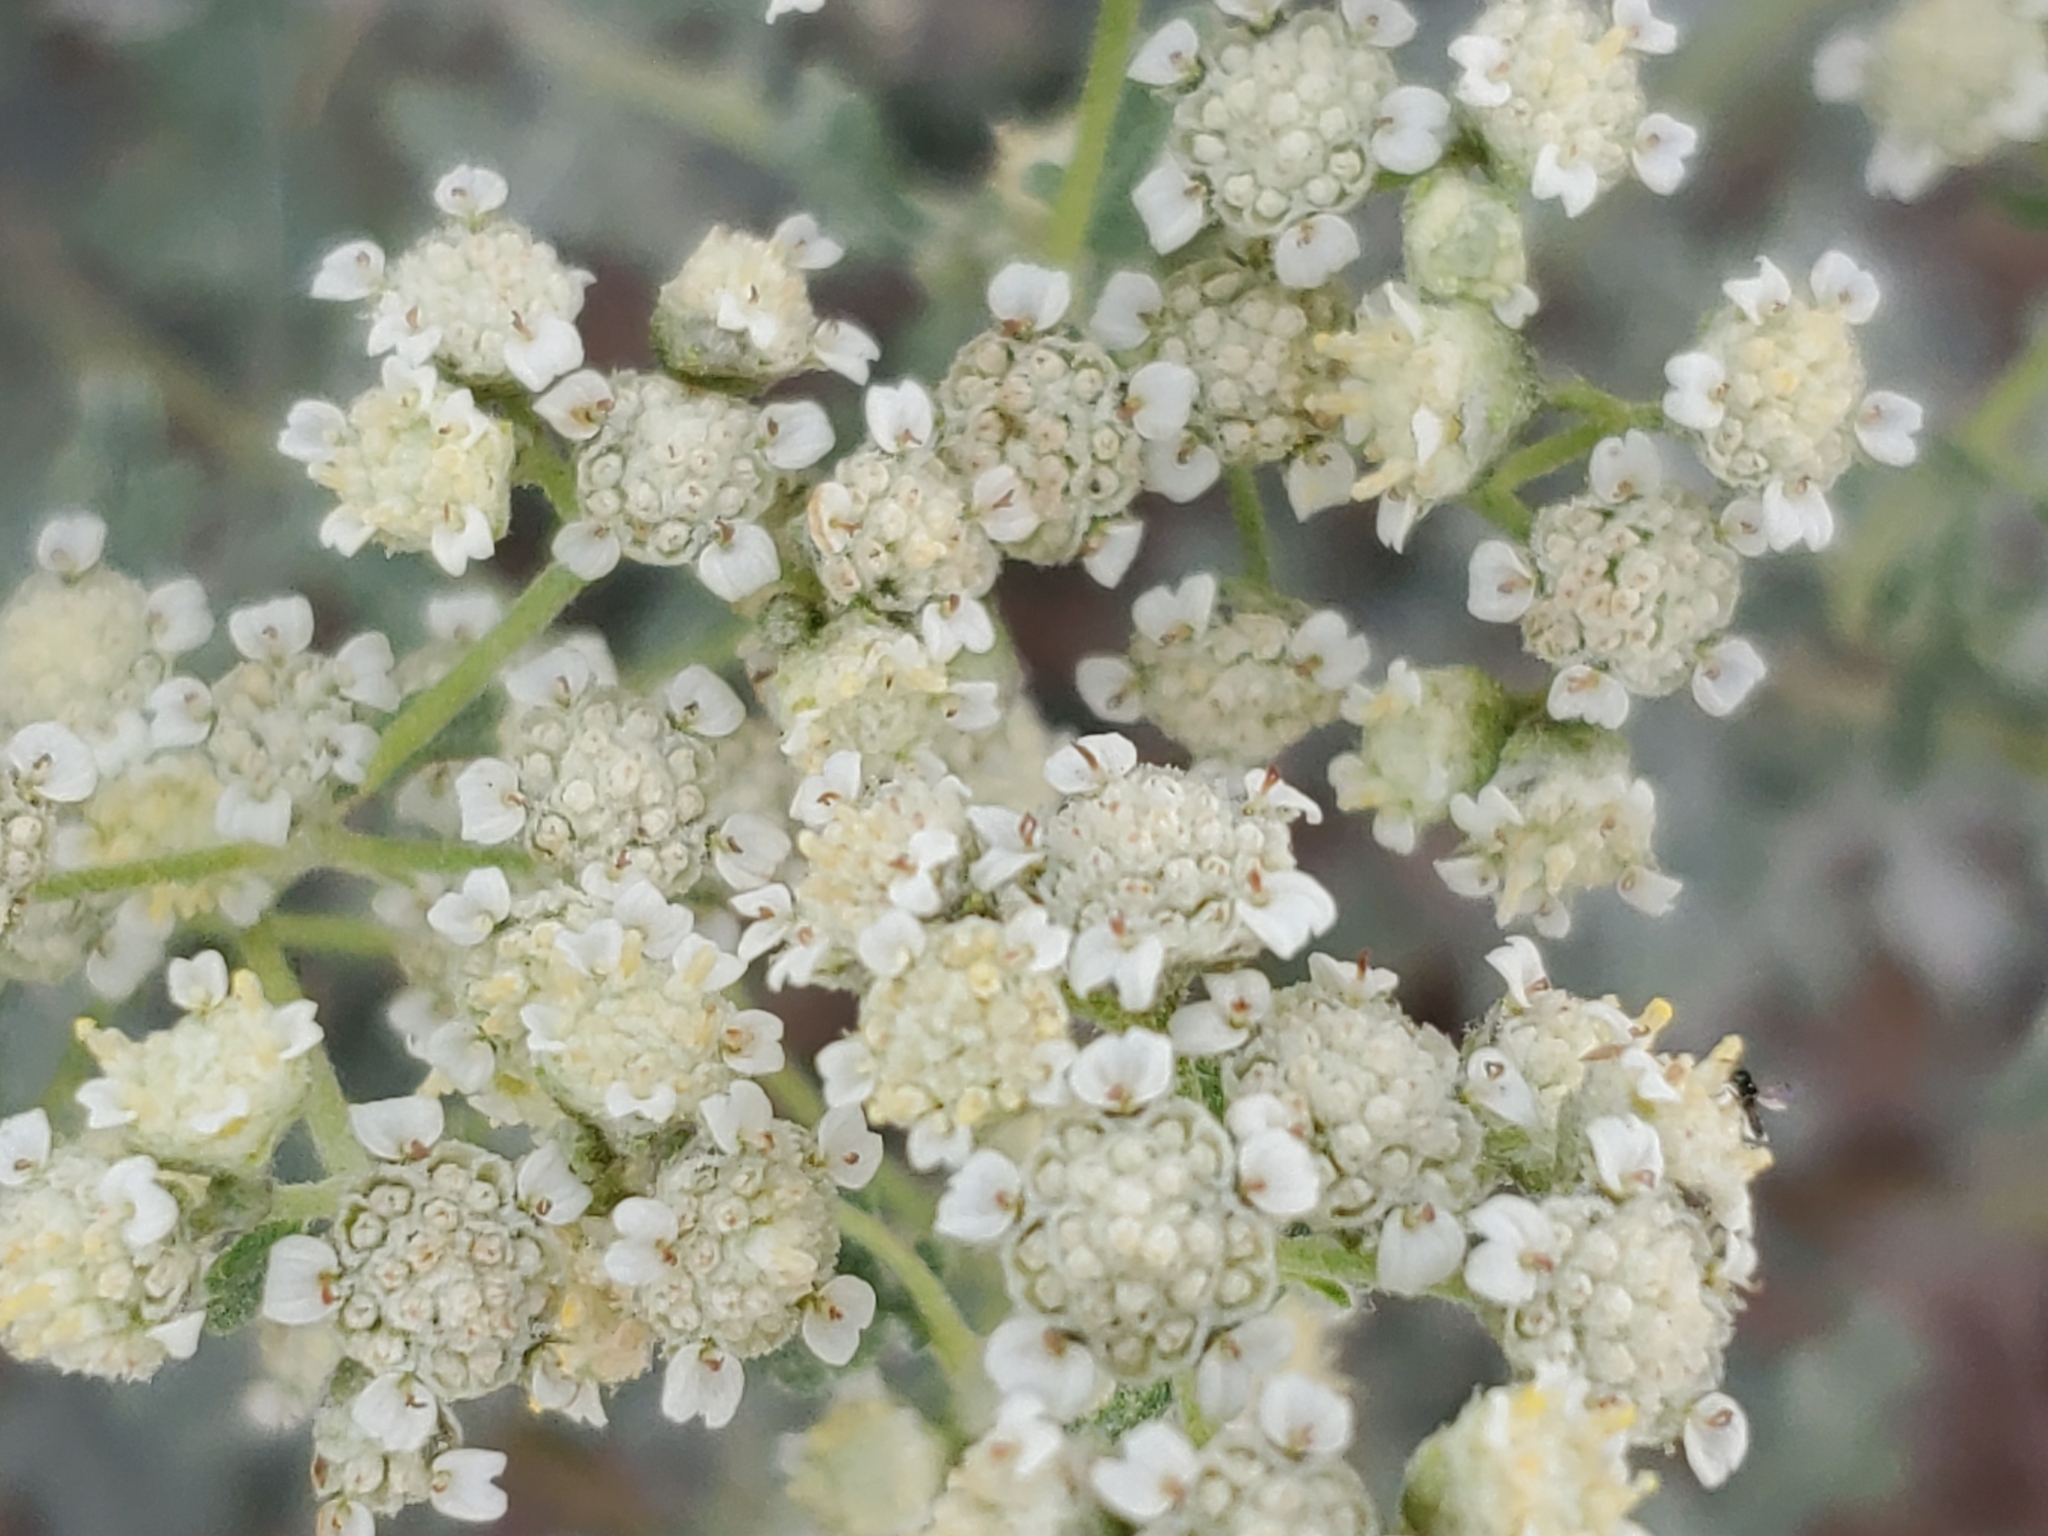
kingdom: Plantae
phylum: Tracheophyta
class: Magnoliopsida
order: Asterales
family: Asteraceae
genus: Parthenium
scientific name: Parthenium incanum
